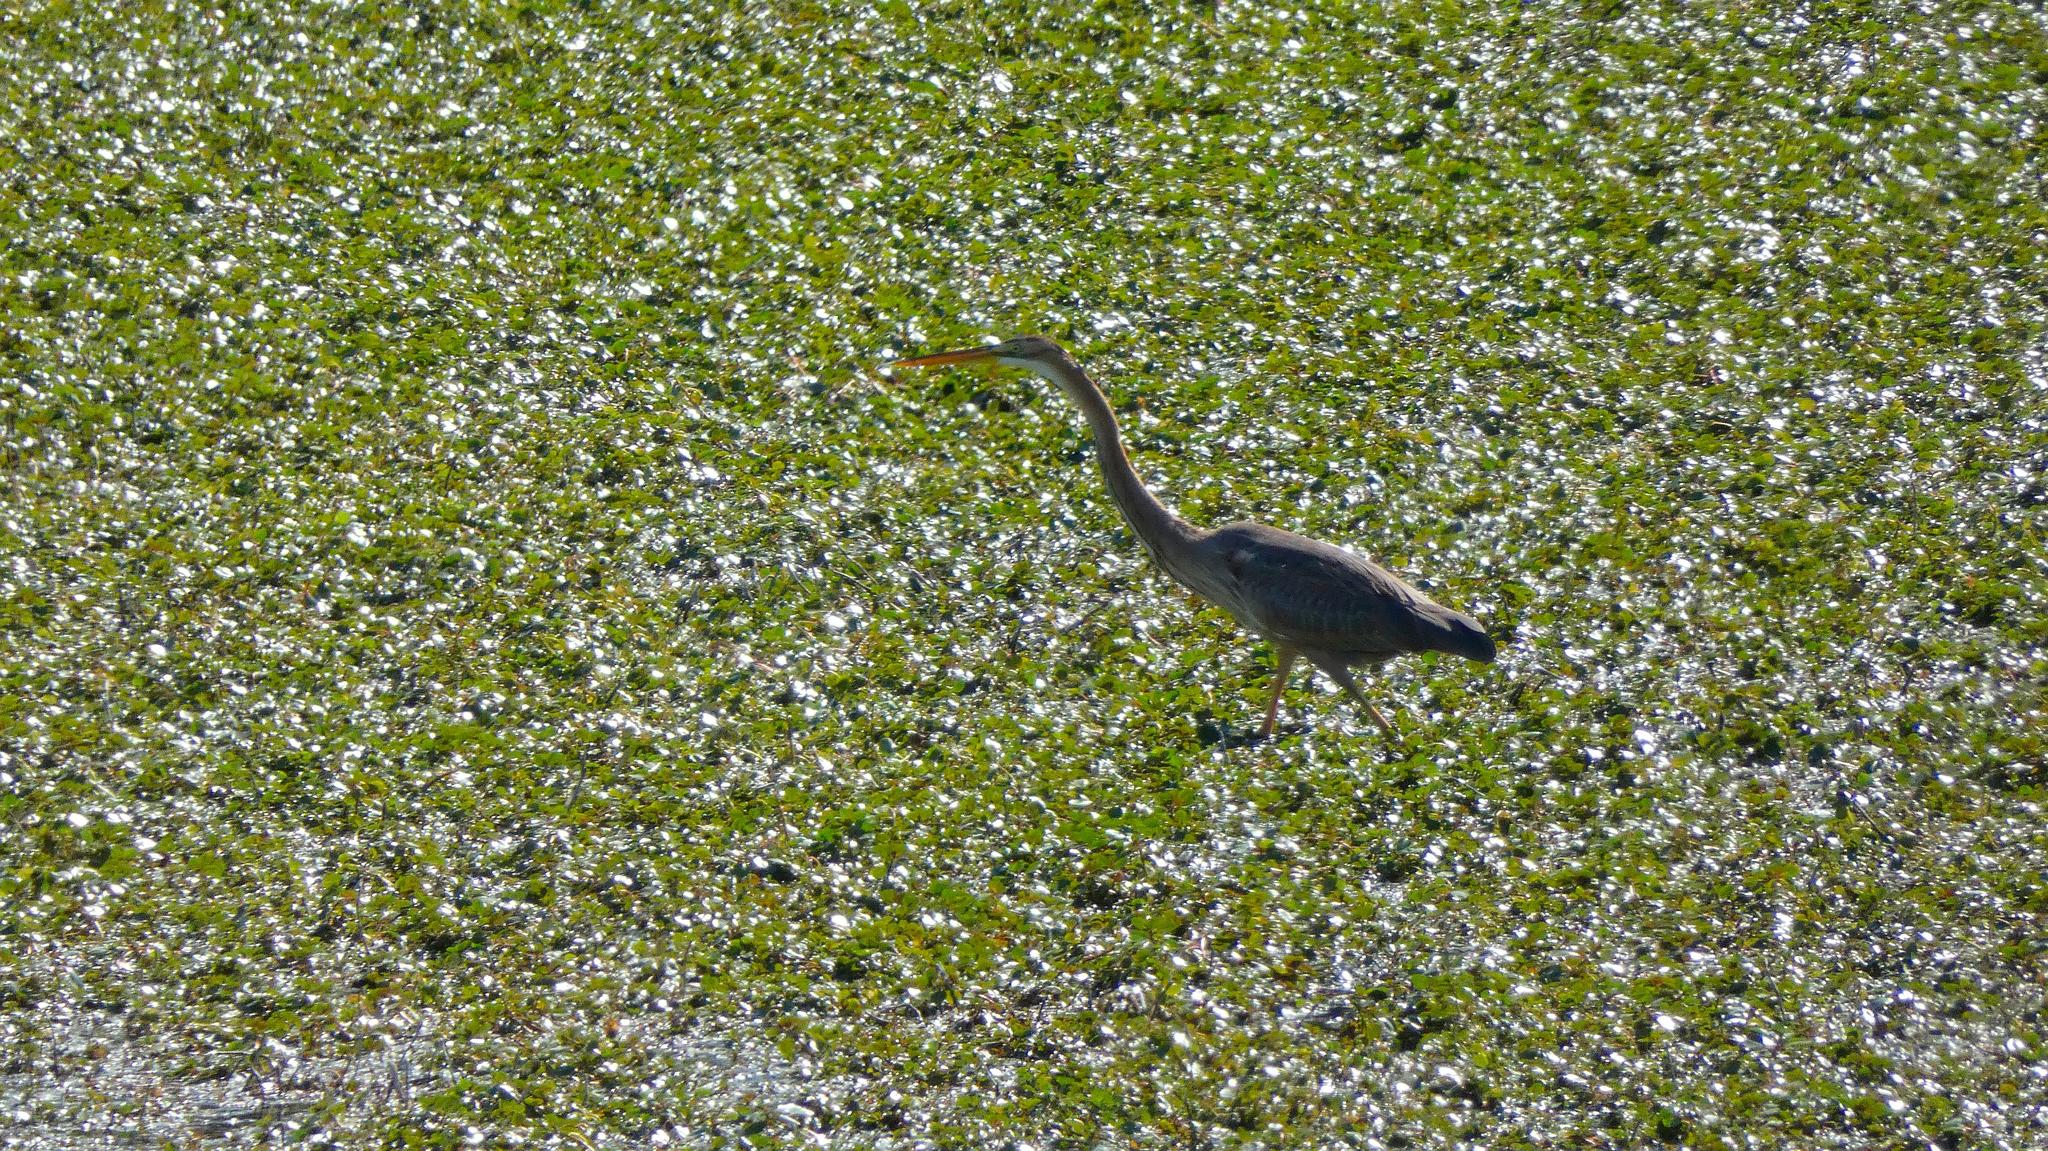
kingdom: Animalia
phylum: Chordata
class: Aves
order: Pelecaniformes
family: Ardeidae
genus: Ardea
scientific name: Ardea purpurea
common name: Purple heron
